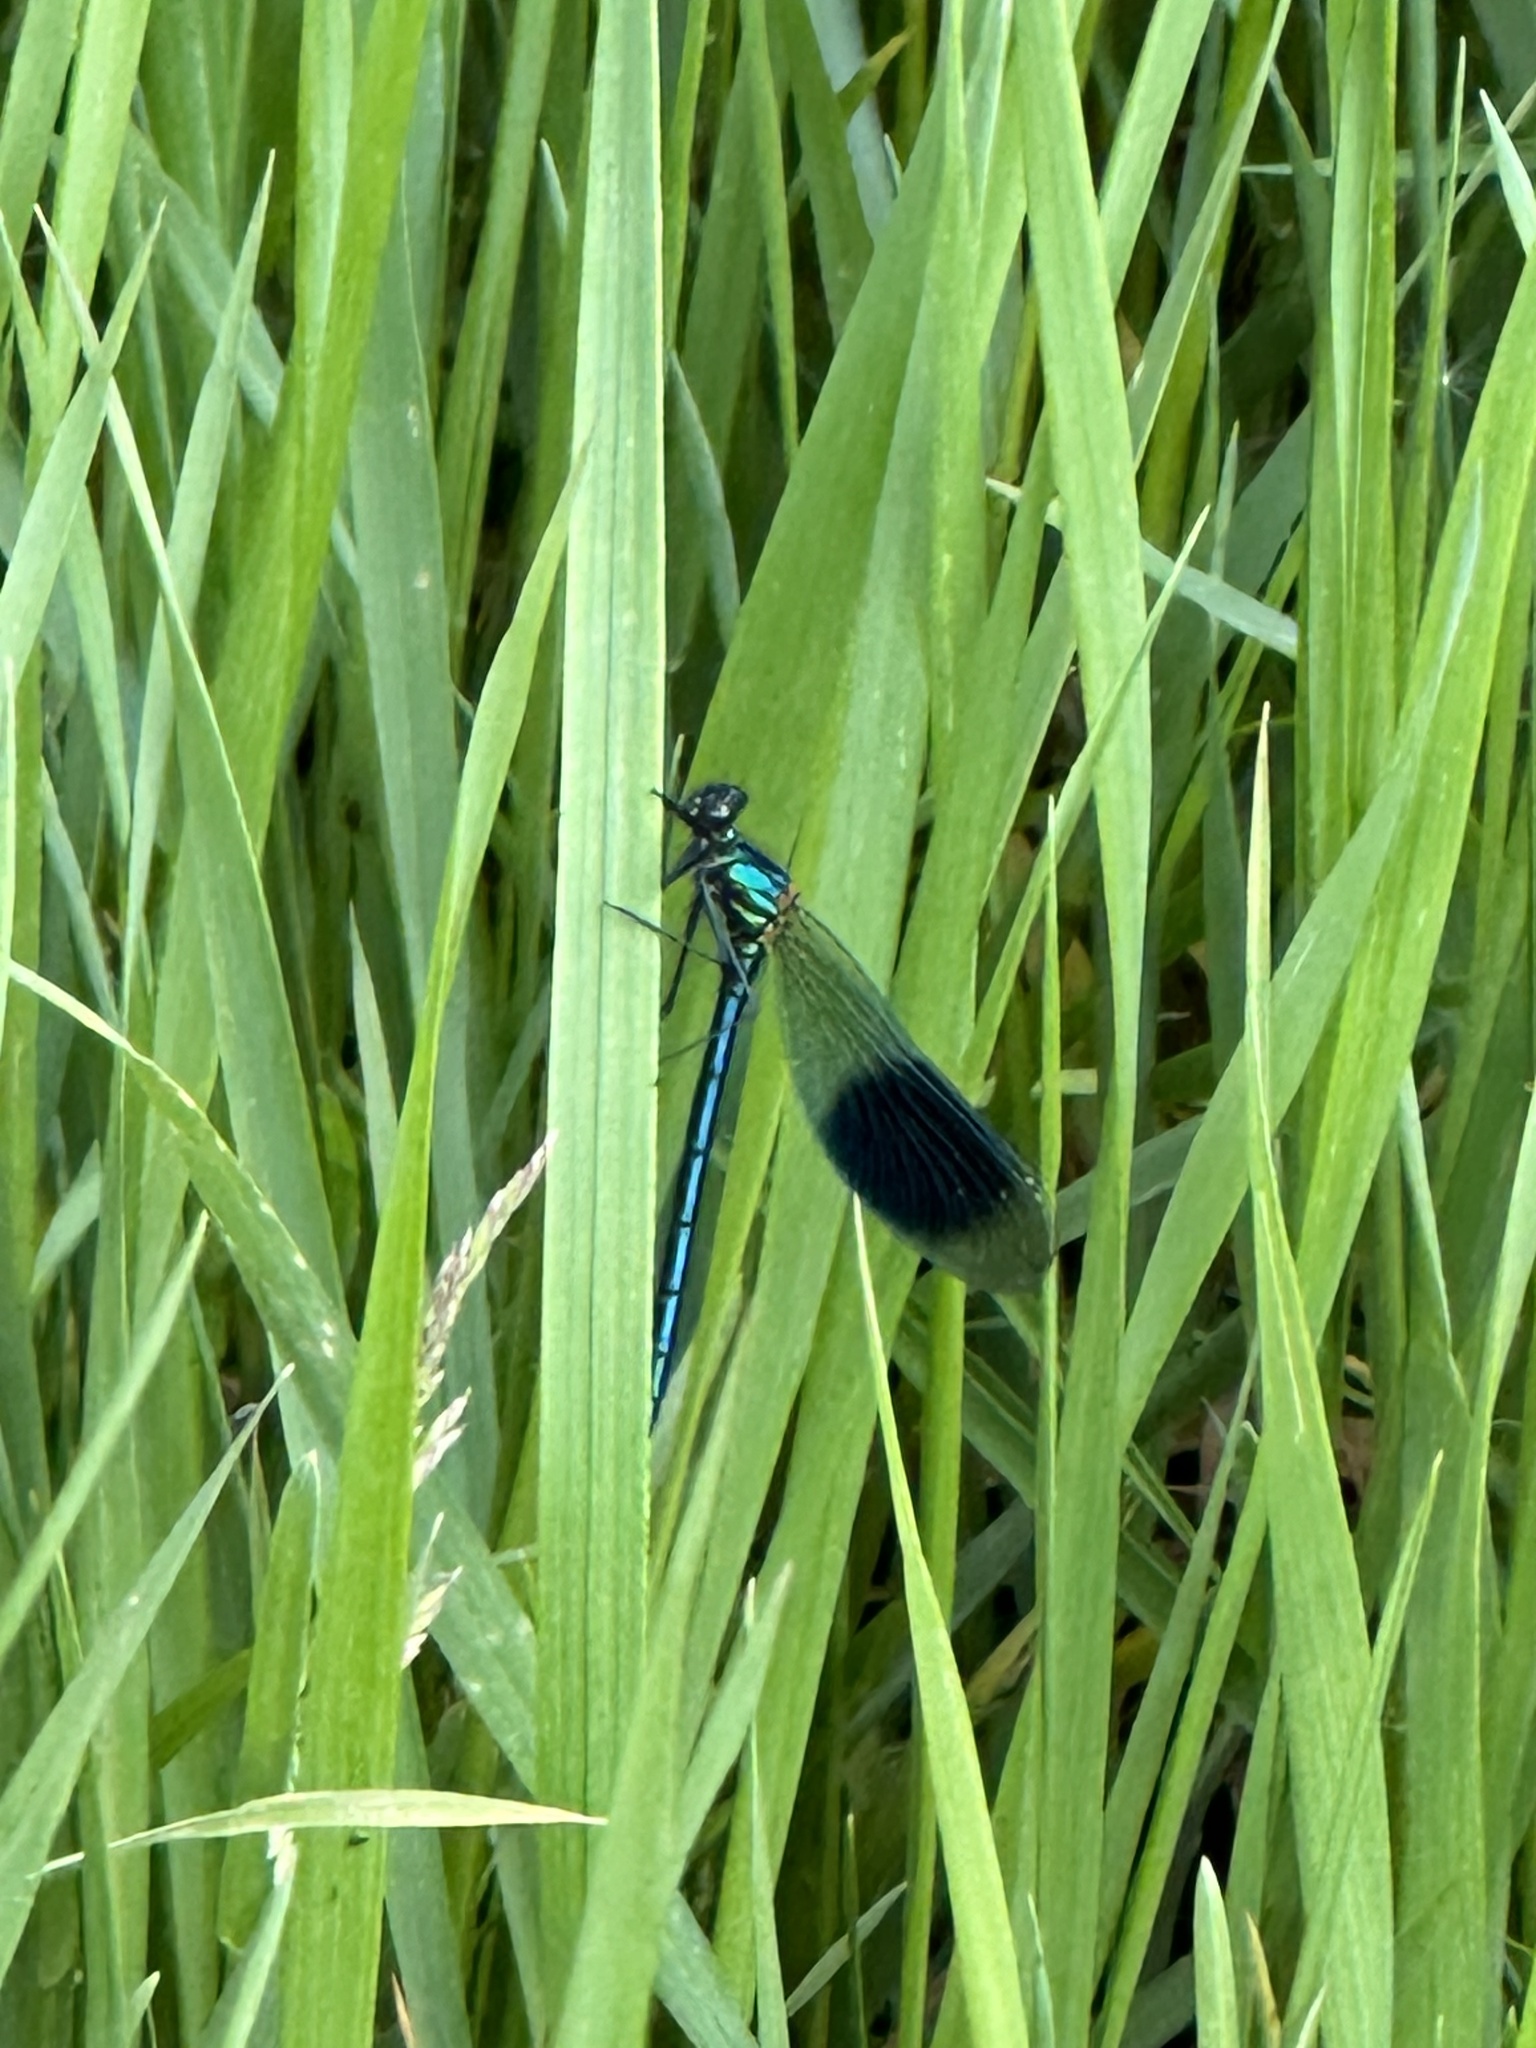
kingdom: Animalia
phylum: Arthropoda
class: Insecta
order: Odonata
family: Calopterygidae
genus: Calopteryx
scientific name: Calopteryx splendens
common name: Banded demoiselle
